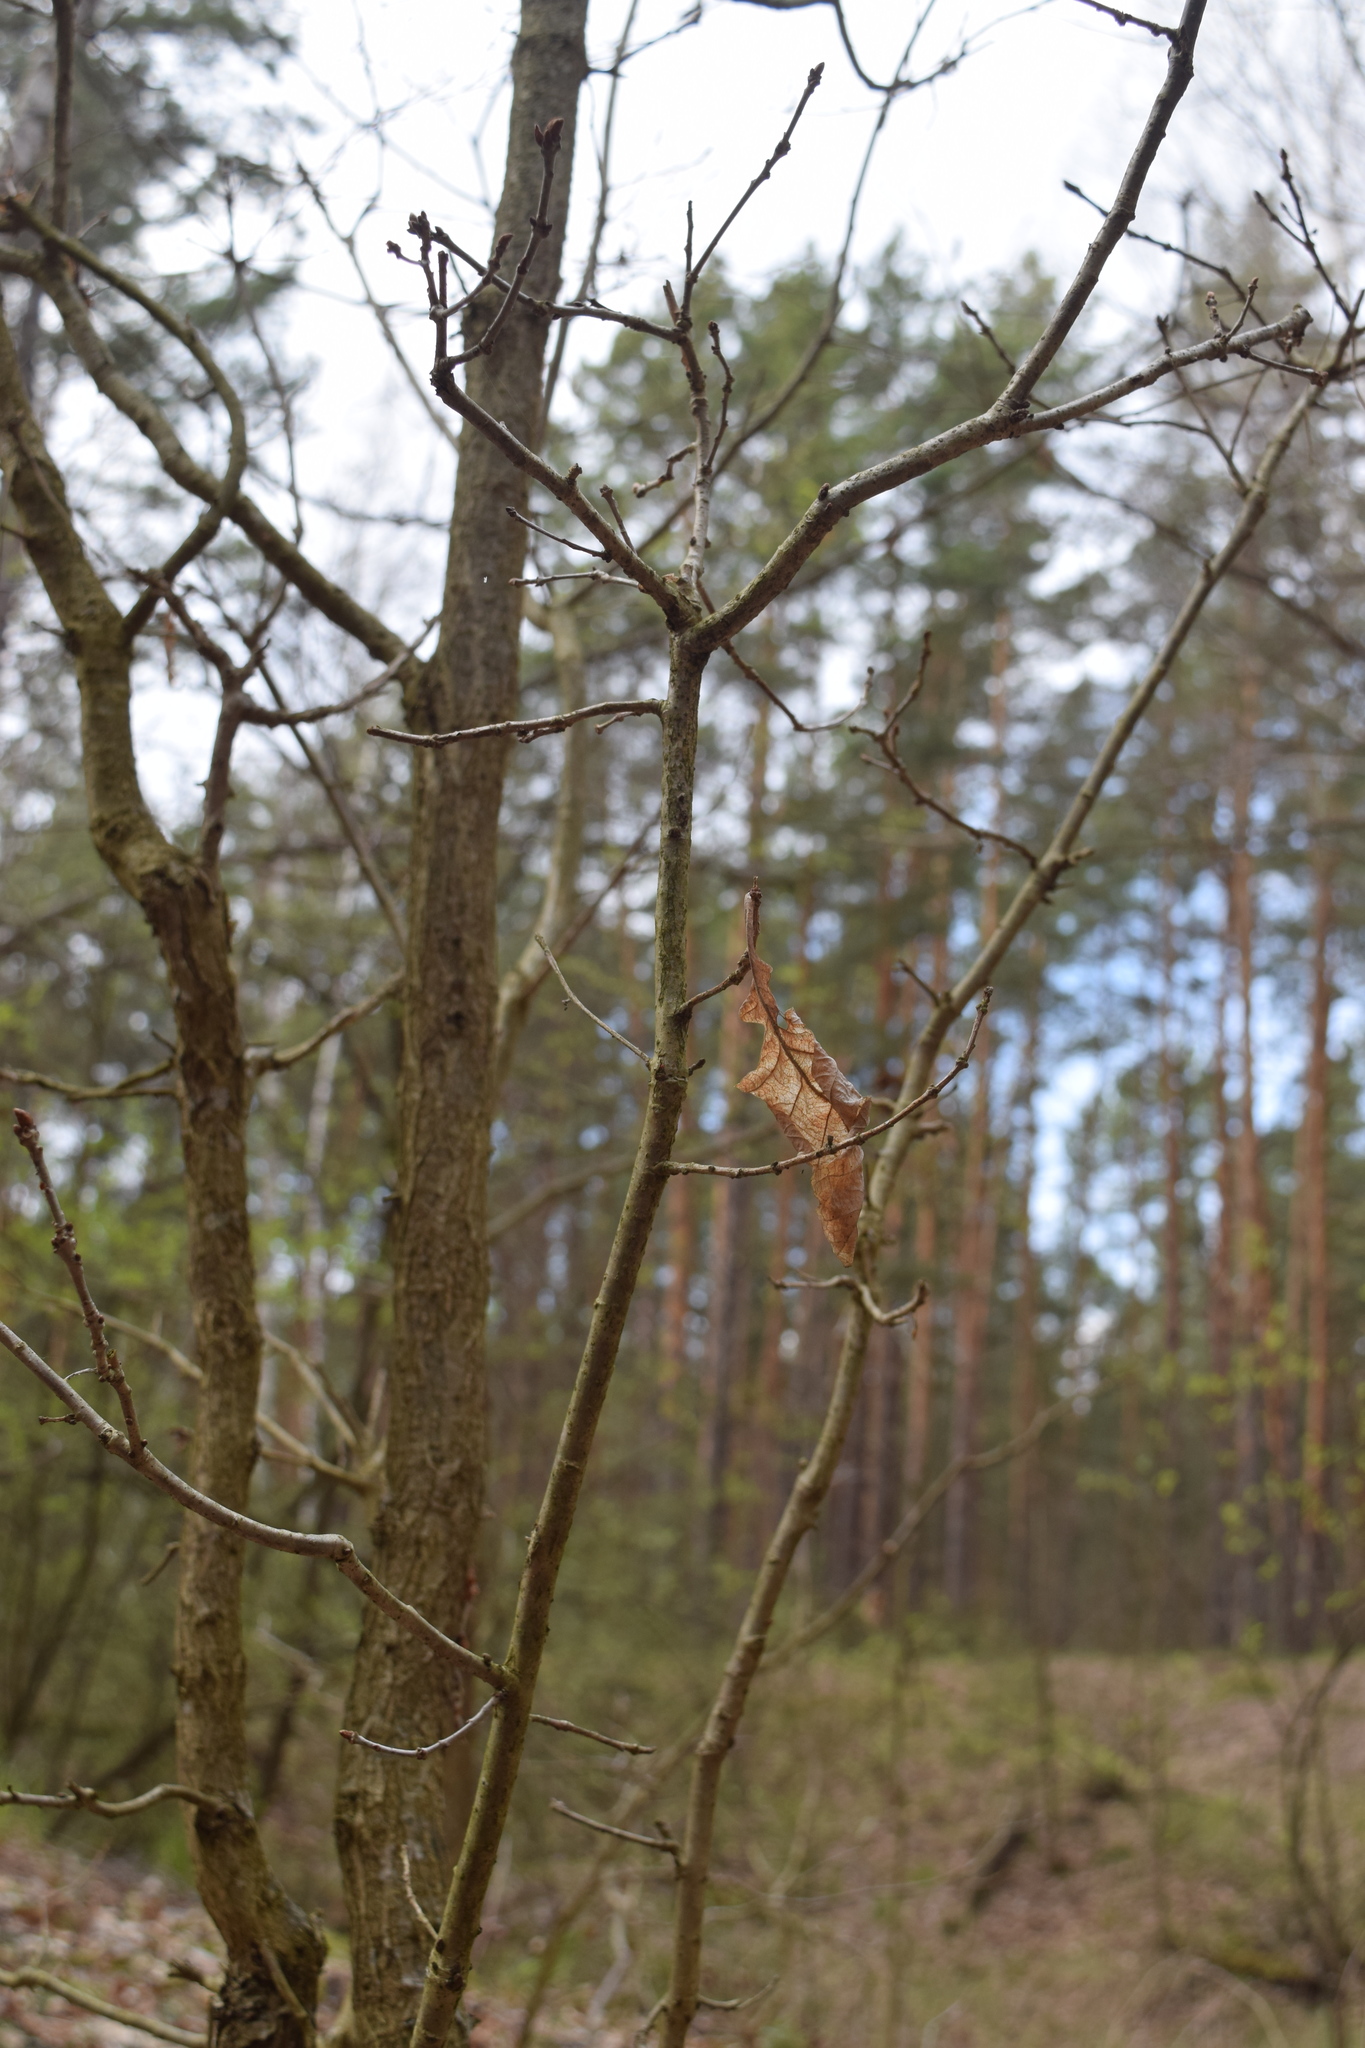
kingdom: Plantae
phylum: Tracheophyta
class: Magnoliopsida
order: Fagales
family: Fagaceae
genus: Quercus
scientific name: Quercus robur
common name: Pedunculate oak
